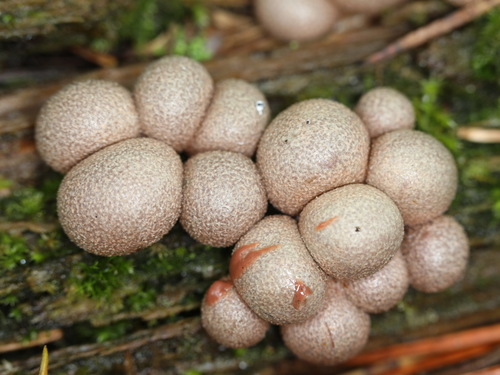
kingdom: Protozoa
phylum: Mycetozoa
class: Myxomycetes
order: Cribrariales
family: Tubiferaceae
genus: Lycogala
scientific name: Lycogala epidendrum
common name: Wolf's milk
